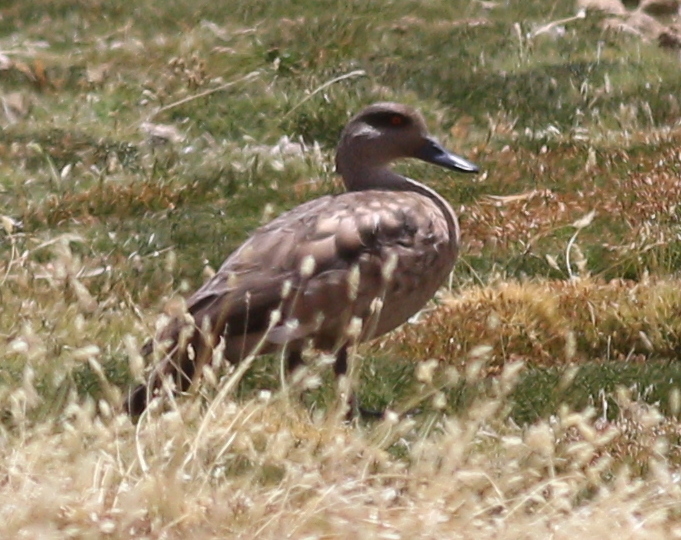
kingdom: Animalia
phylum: Chordata
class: Aves
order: Anseriformes
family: Anatidae
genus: Lophonetta
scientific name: Lophonetta specularioides
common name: Crested duck
